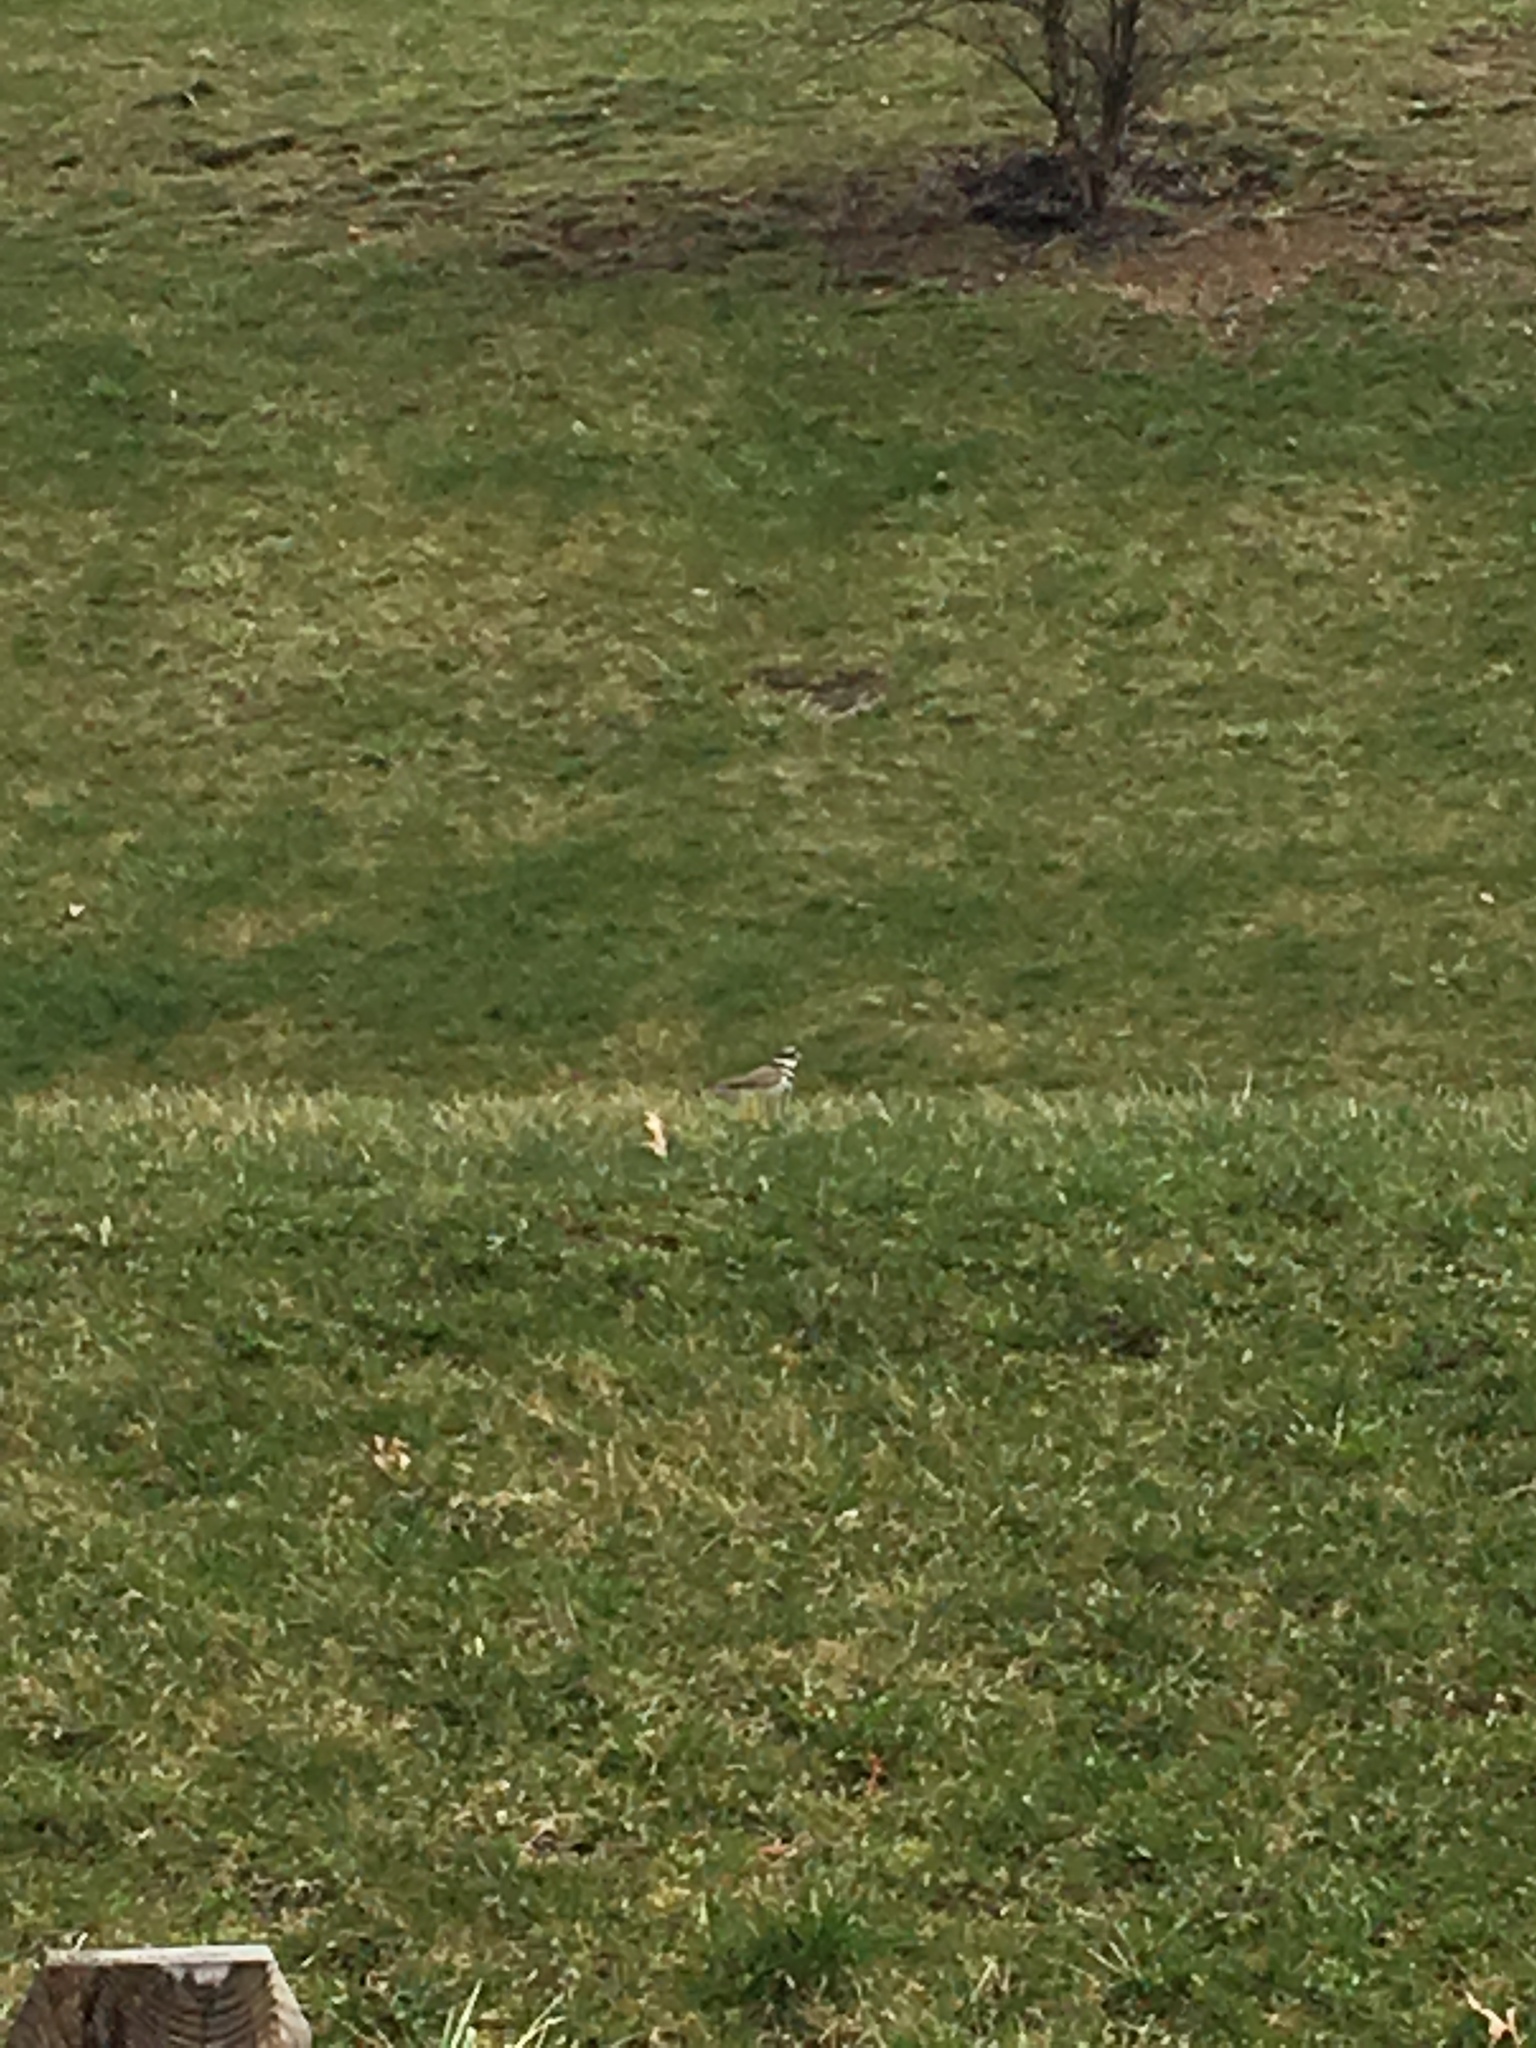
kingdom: Animalia
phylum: Chordata
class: Aves
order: Charadriiformes
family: Charadriidae
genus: Charadrius
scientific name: Charadrius vociferus
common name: Killdeer
